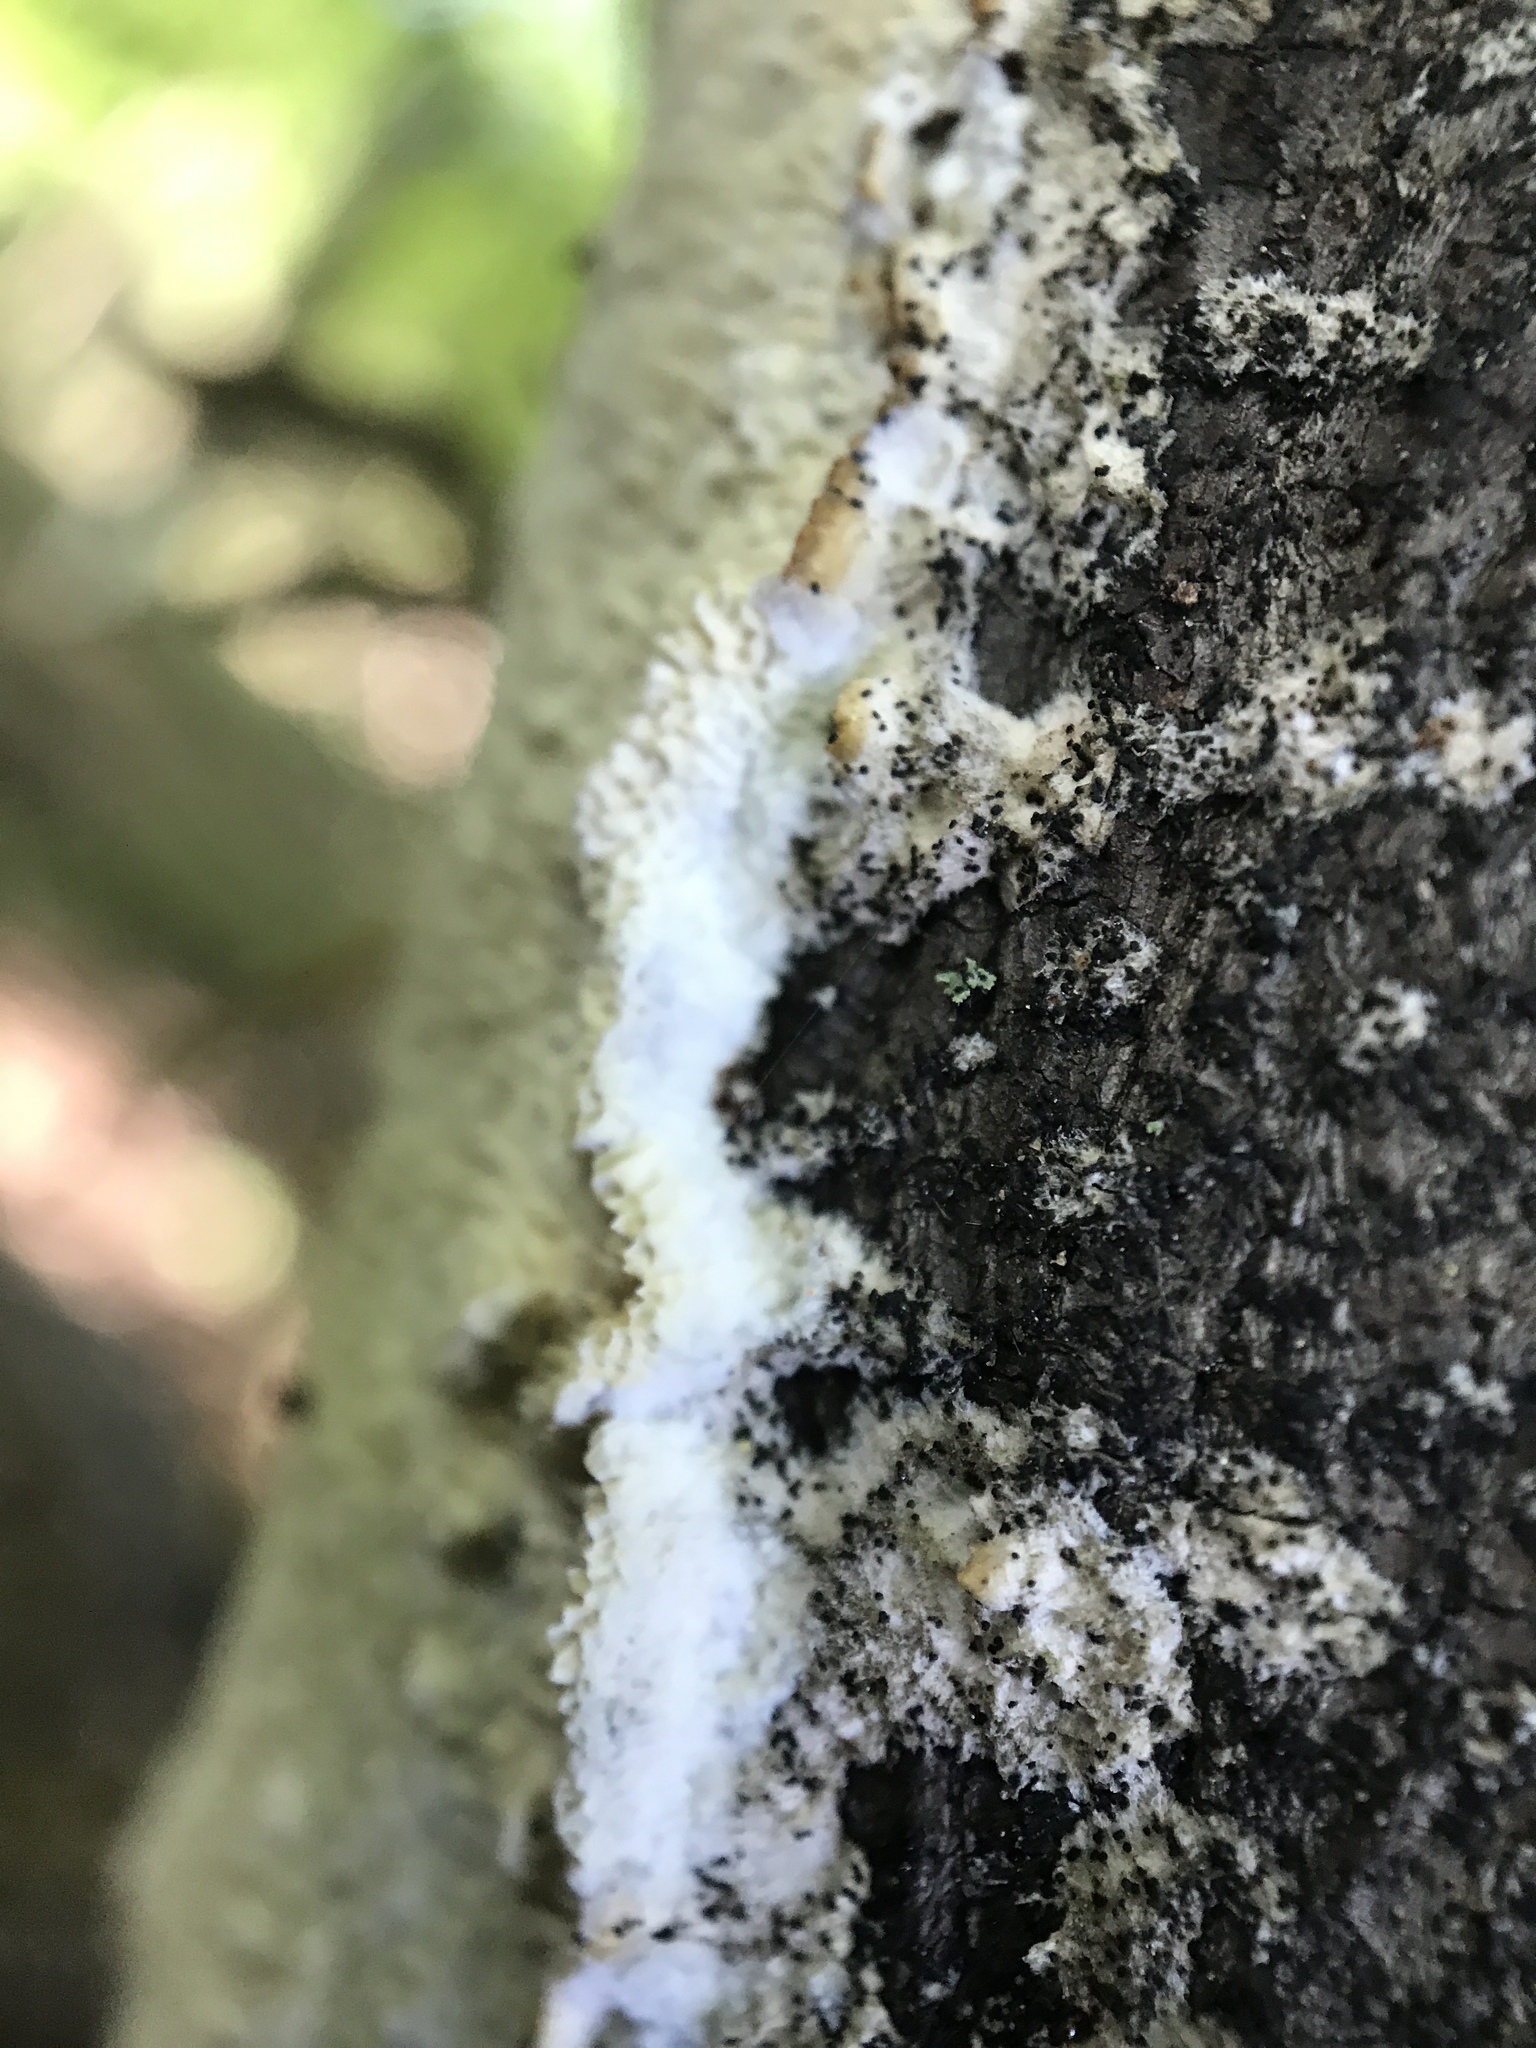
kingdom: Fungi
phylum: Basidiomycota
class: Agaricomycetes
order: Polyporales
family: Irpicaceae
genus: Irpex
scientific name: Irpex lacteus
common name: Milk-white toothed polypore
